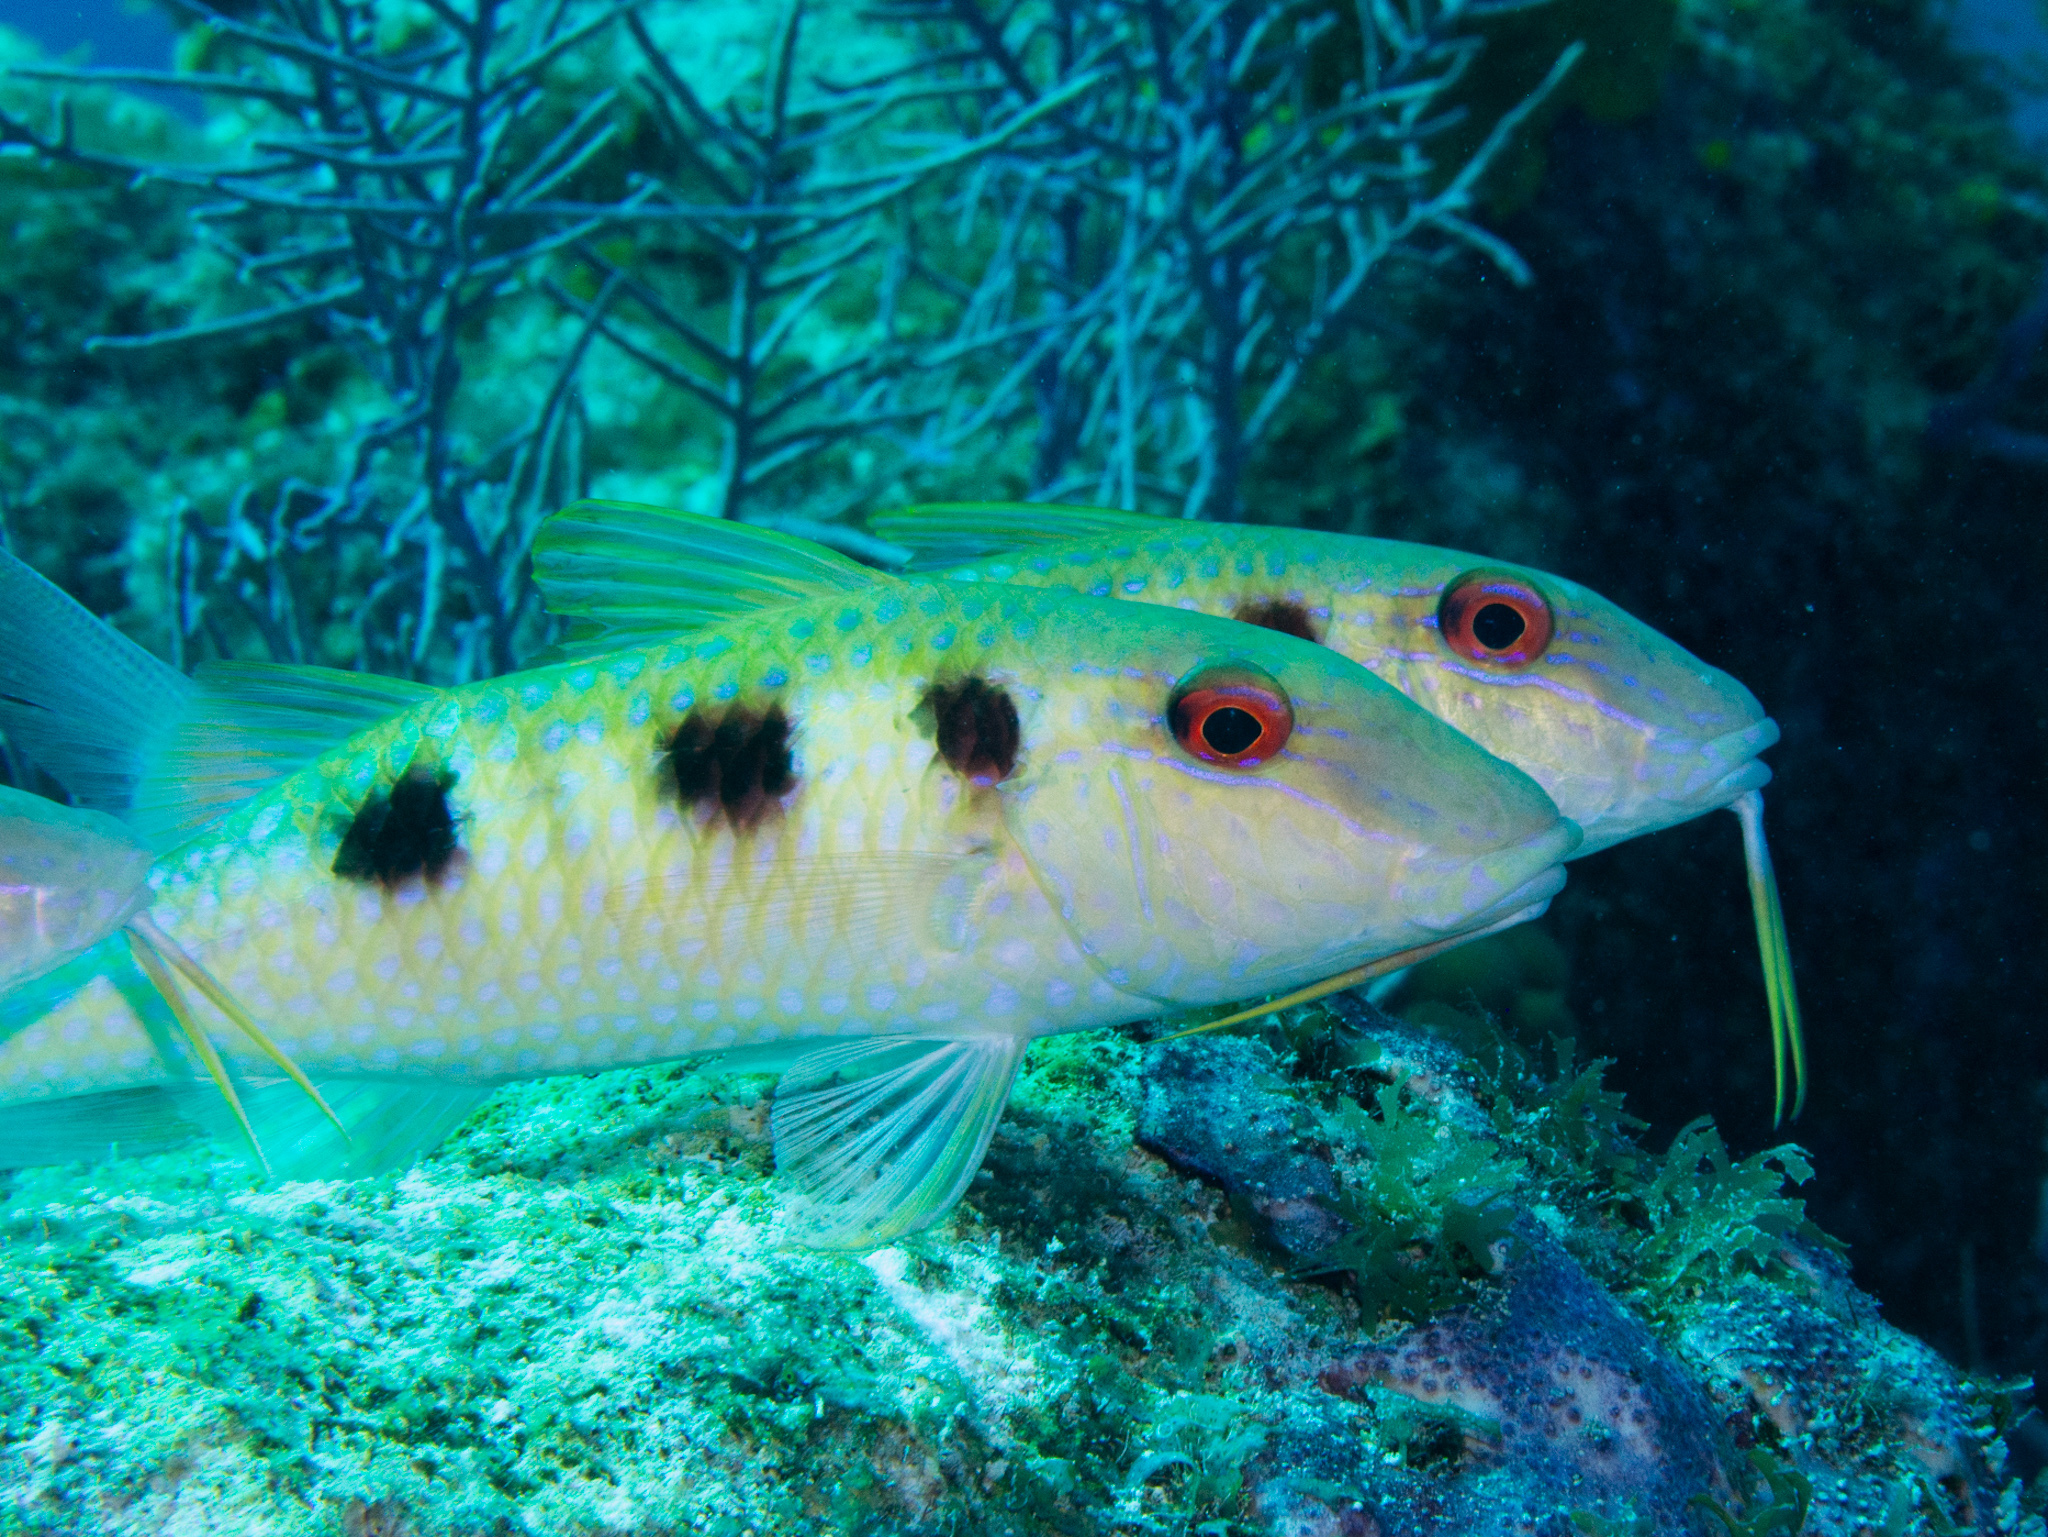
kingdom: Animalia
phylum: Chordata
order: Perciformes
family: Mullidae
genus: Pseudupeneus
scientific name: Pseudupeneus maculatus
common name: Spotted goatfish
